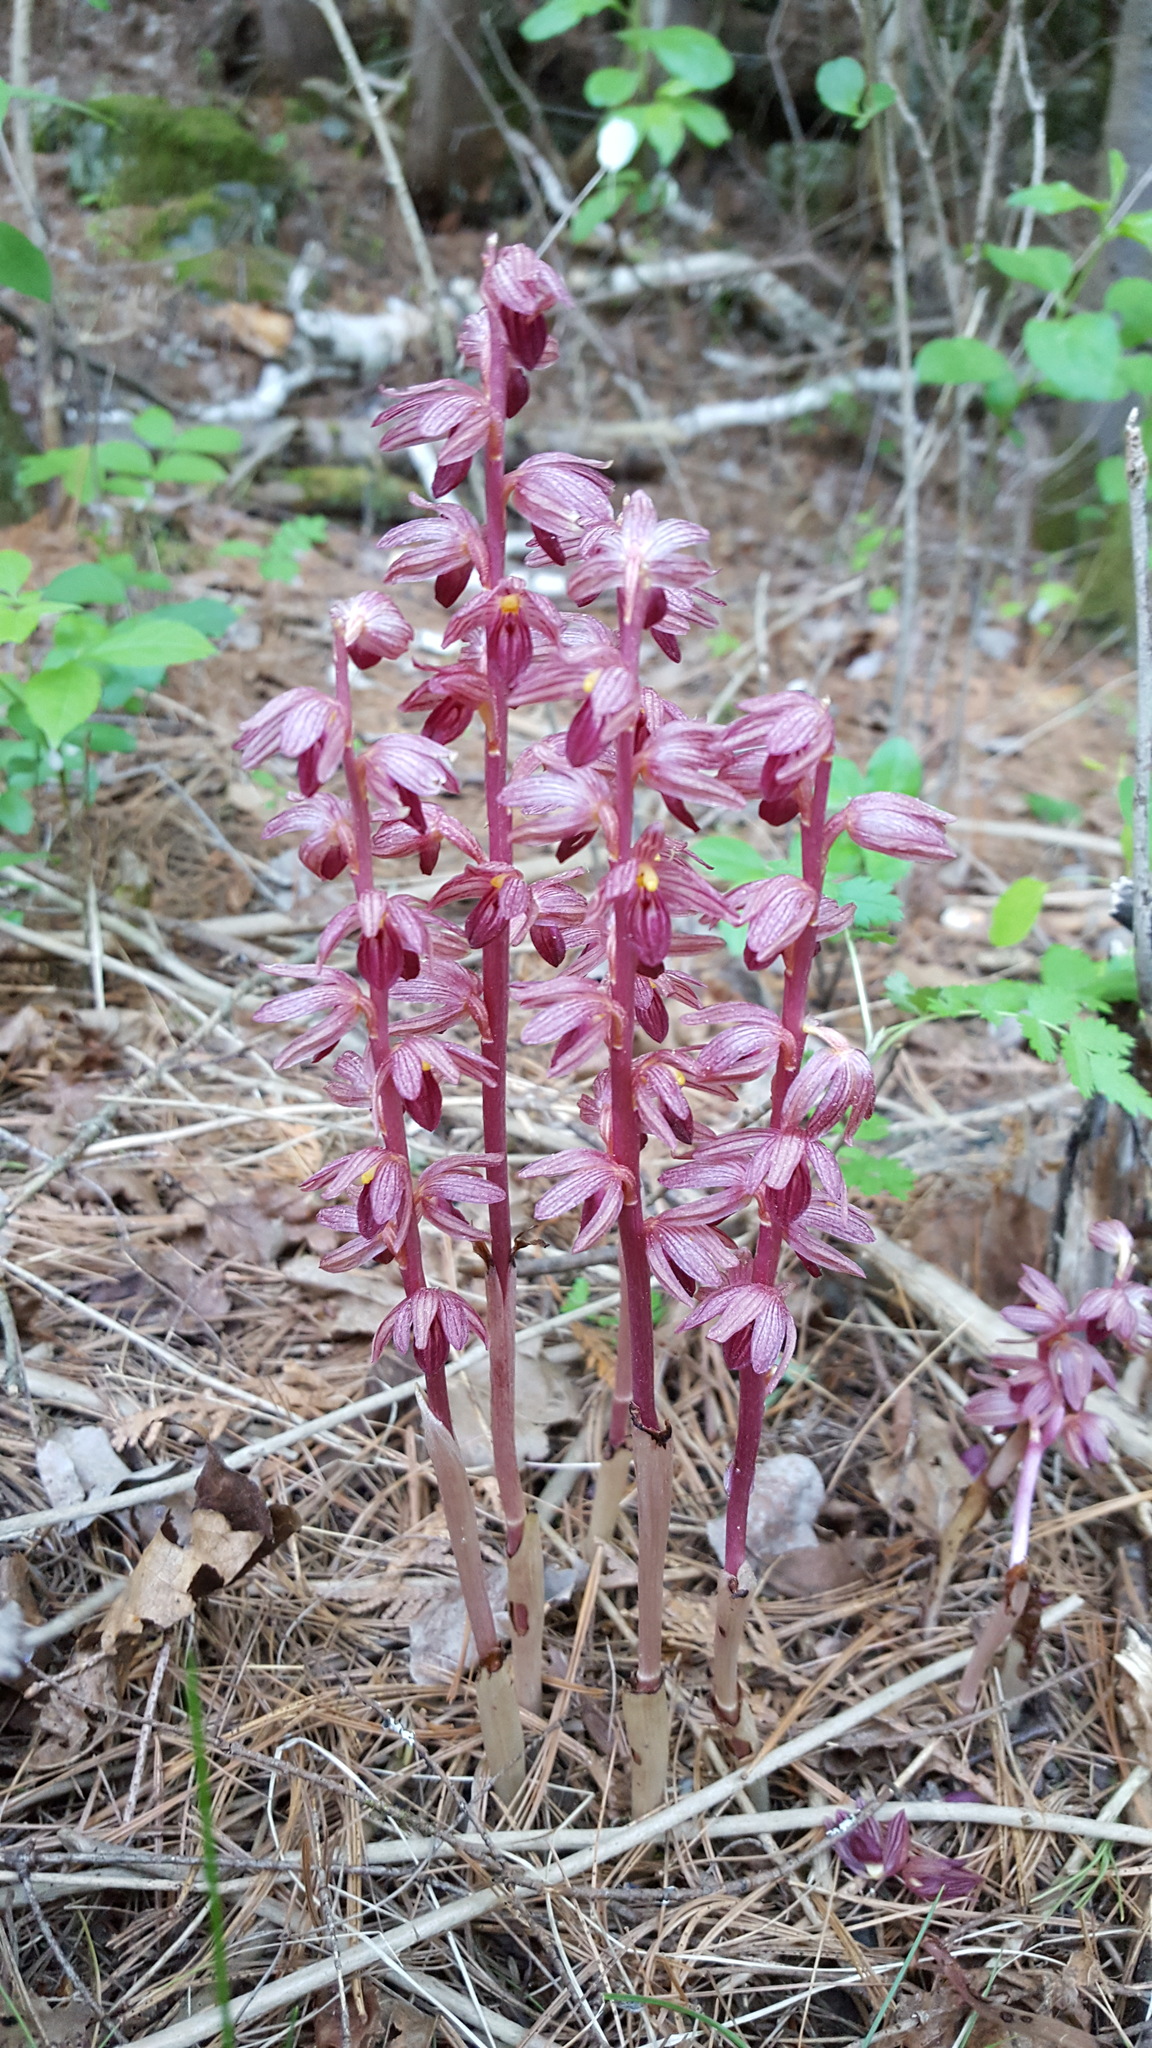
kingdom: Plantae
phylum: Tracheophyta
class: Liliopsida
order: Asparagales
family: Orchidaceae
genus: Corallorhiza
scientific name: Corallorhiza striata
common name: Hooded coralroot
